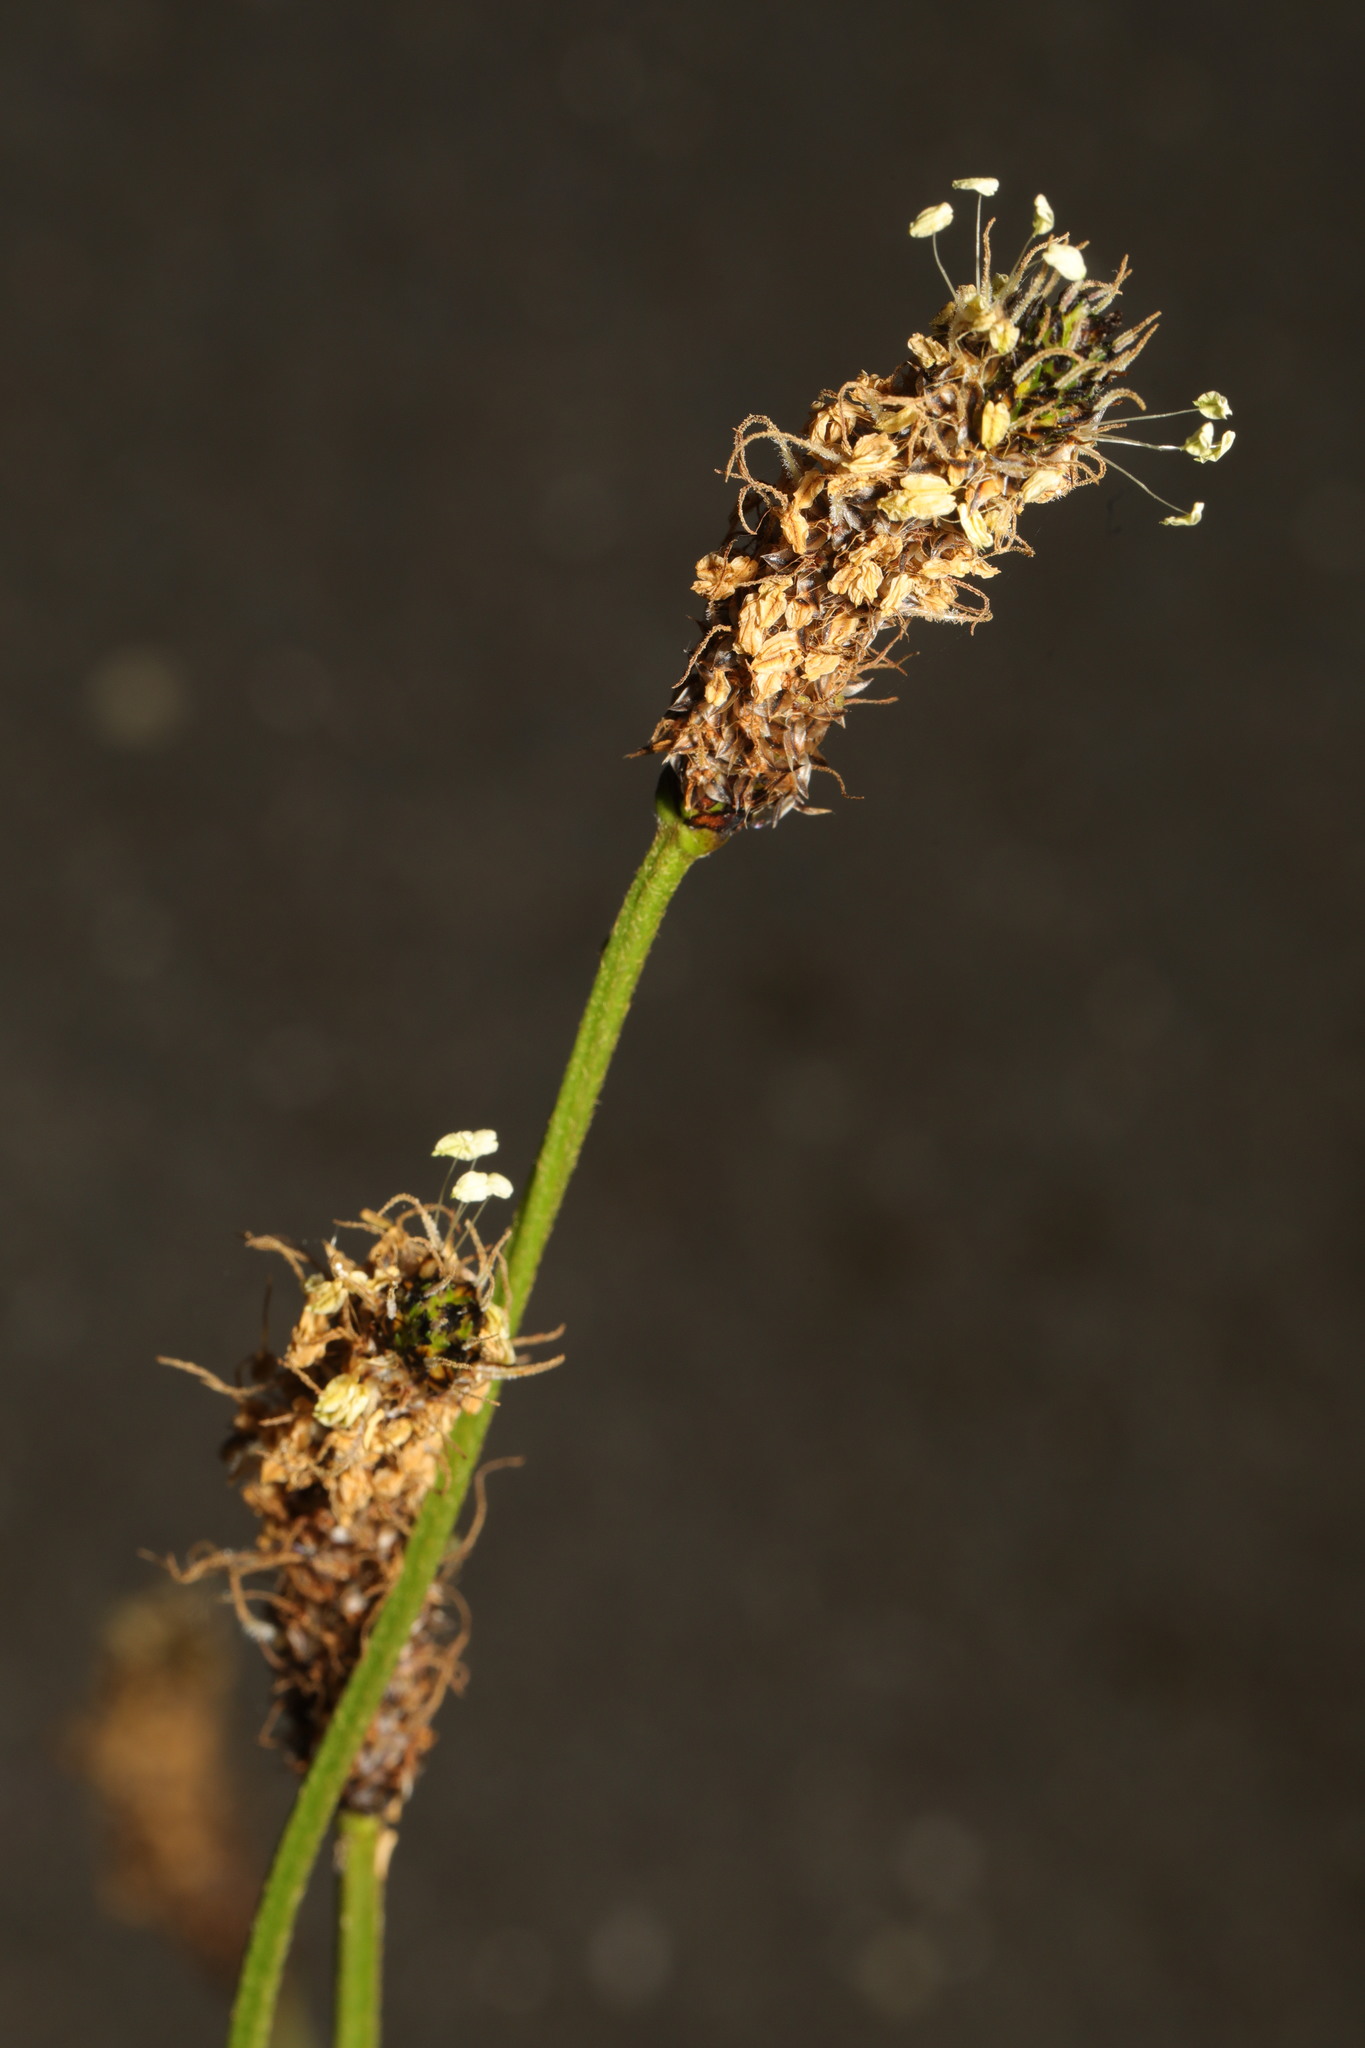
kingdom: Plantae
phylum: Tracheophyta
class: Magnoliopsida
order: Lamiales
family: Plantaginaceae
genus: Plantago
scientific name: Plantago lanceolata
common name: Ribwort plantain
